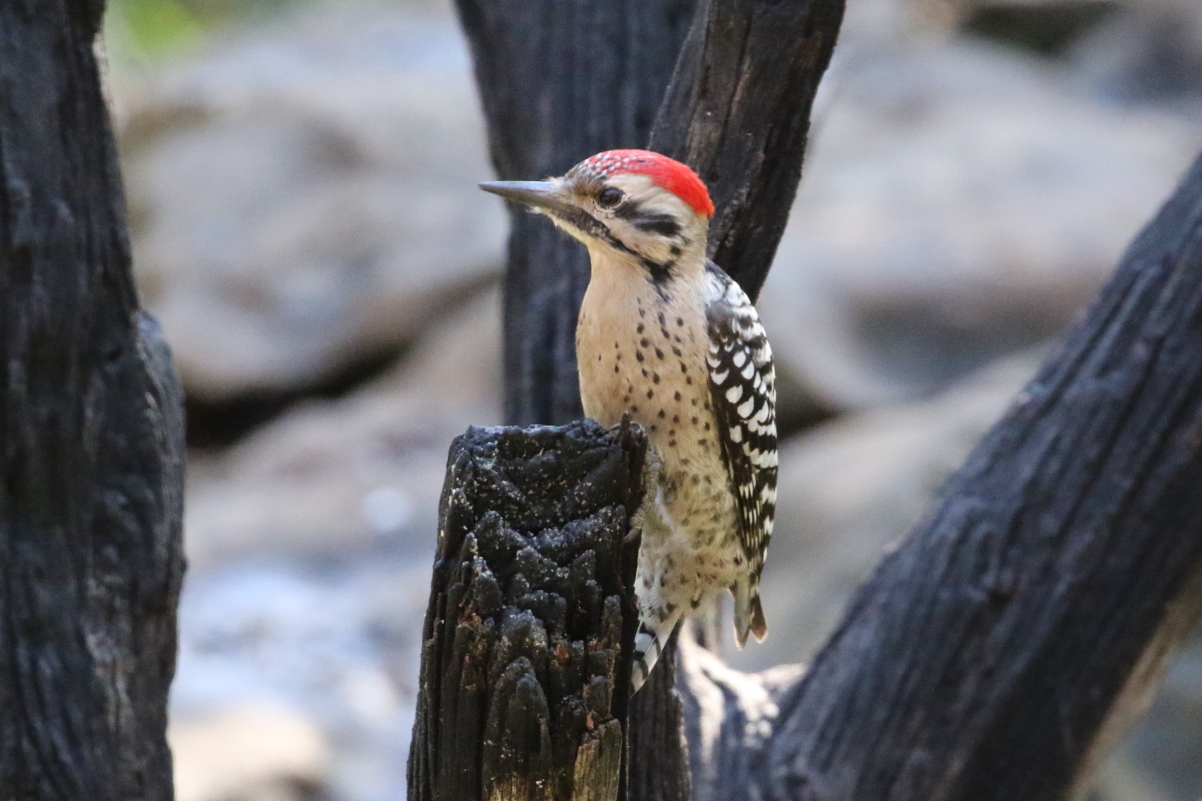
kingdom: Animalia
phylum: Chordata
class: Aves
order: Piciformes
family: Picidae
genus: Dryobates
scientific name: Dryobates scalaris
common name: Ladder-backed woodpecker
